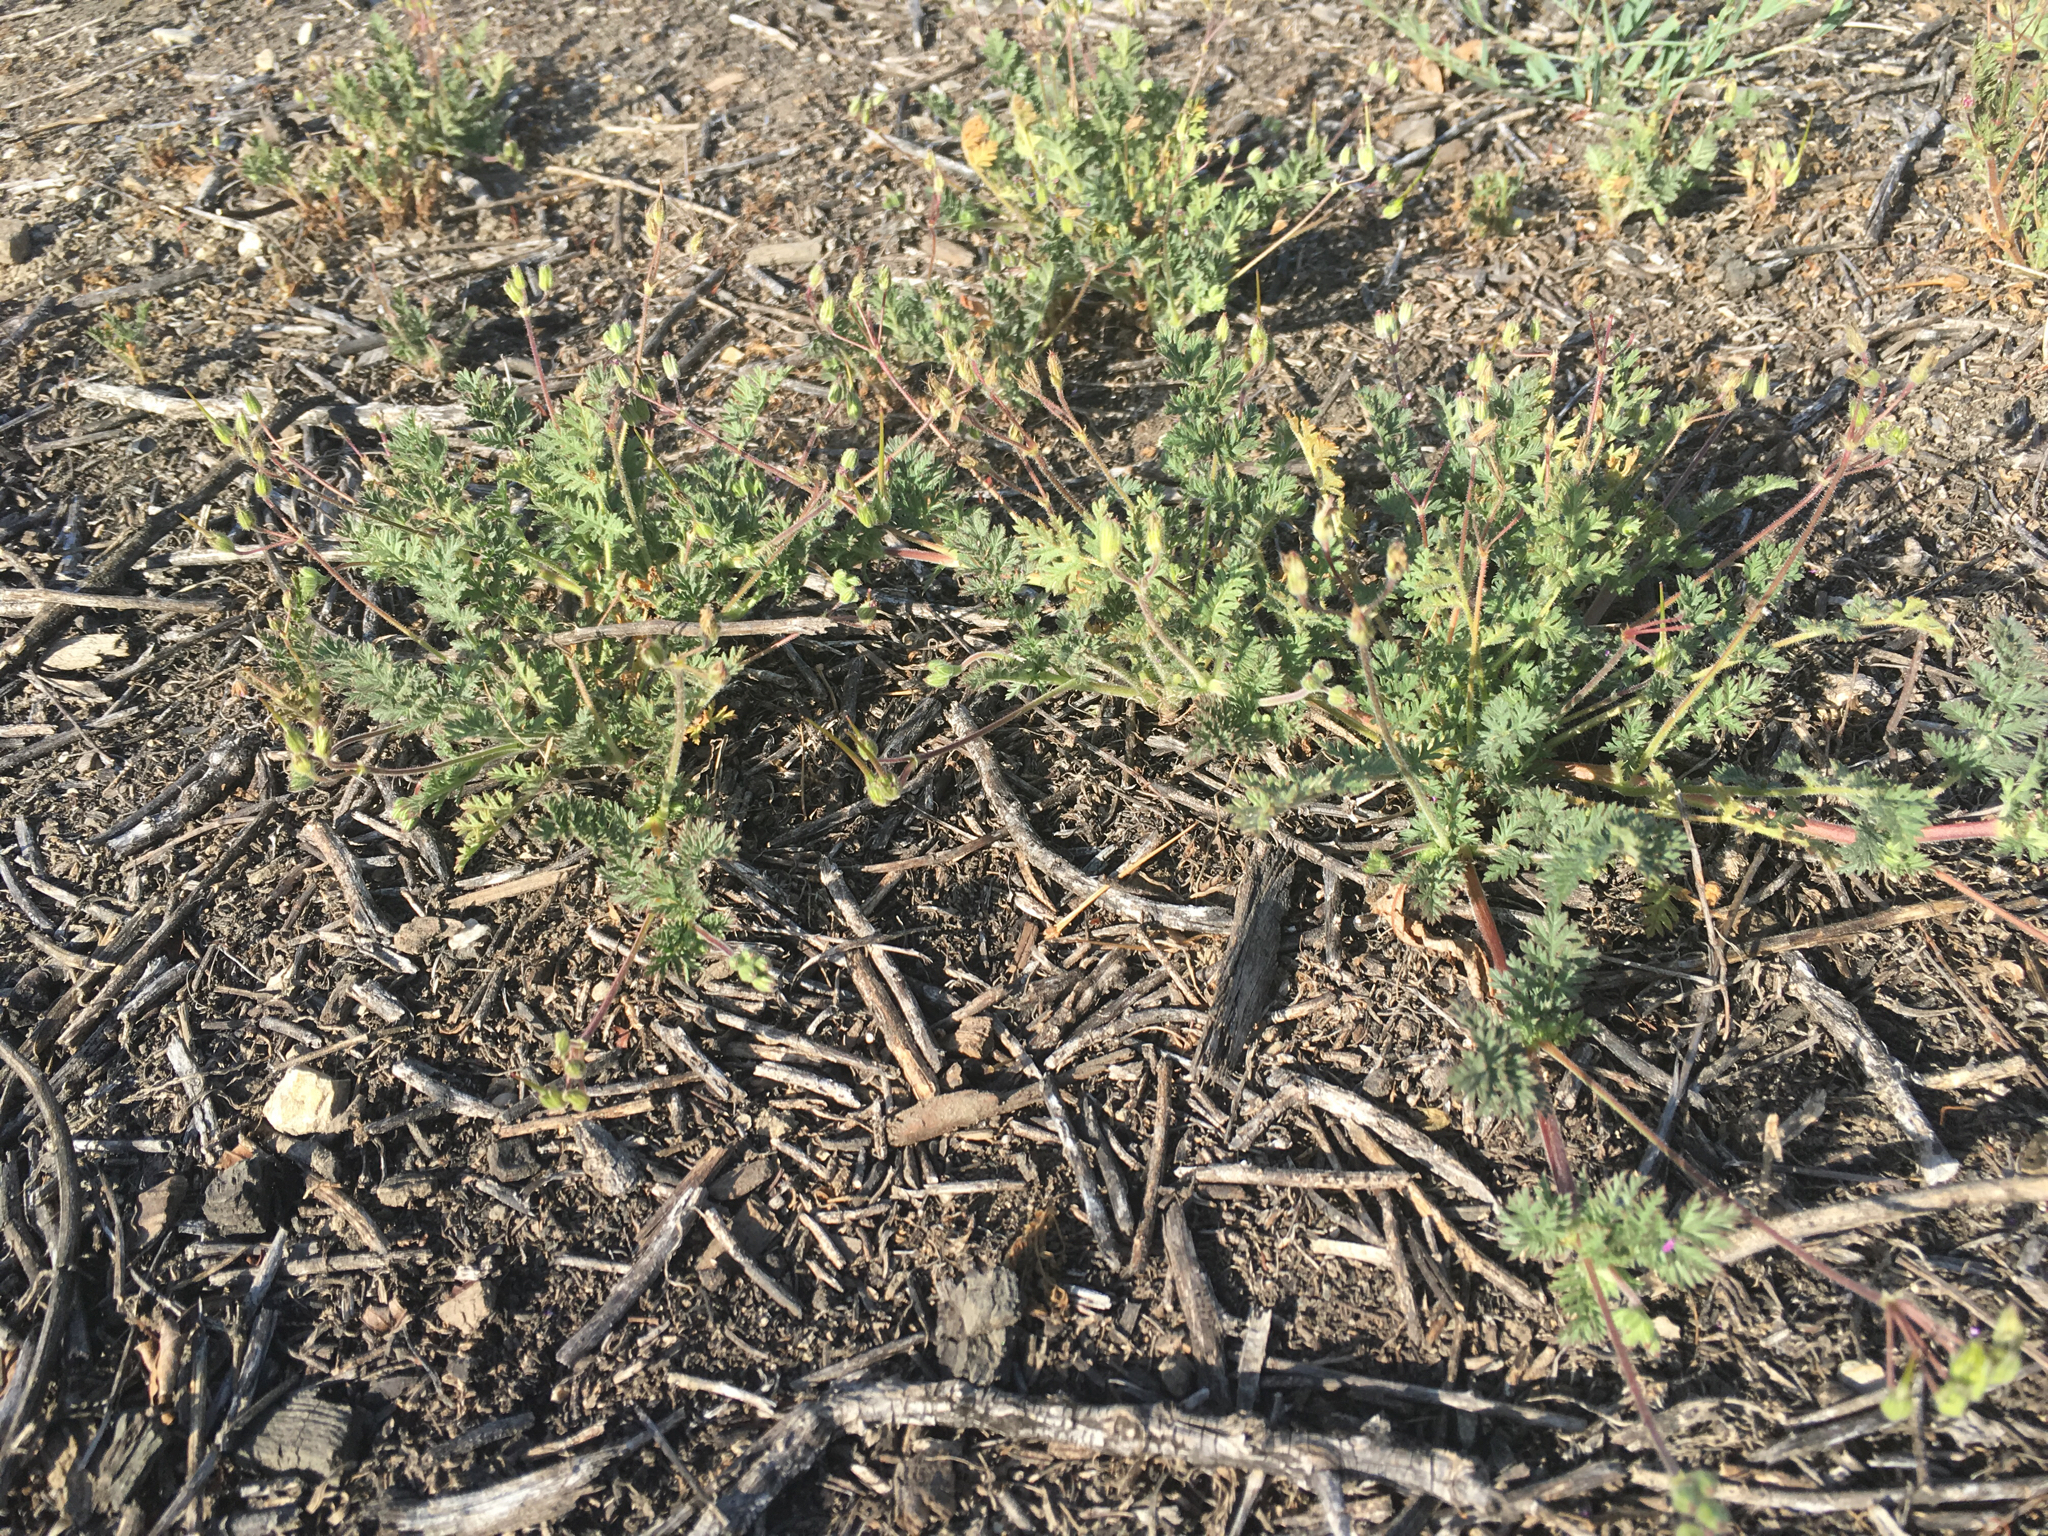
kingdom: Plantae
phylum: Tracheophyta
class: Magnoliopsida
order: Geraniales
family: Geraniaceae
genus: Erodium
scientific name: Erodium cicutarium
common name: Common stork's-bill
